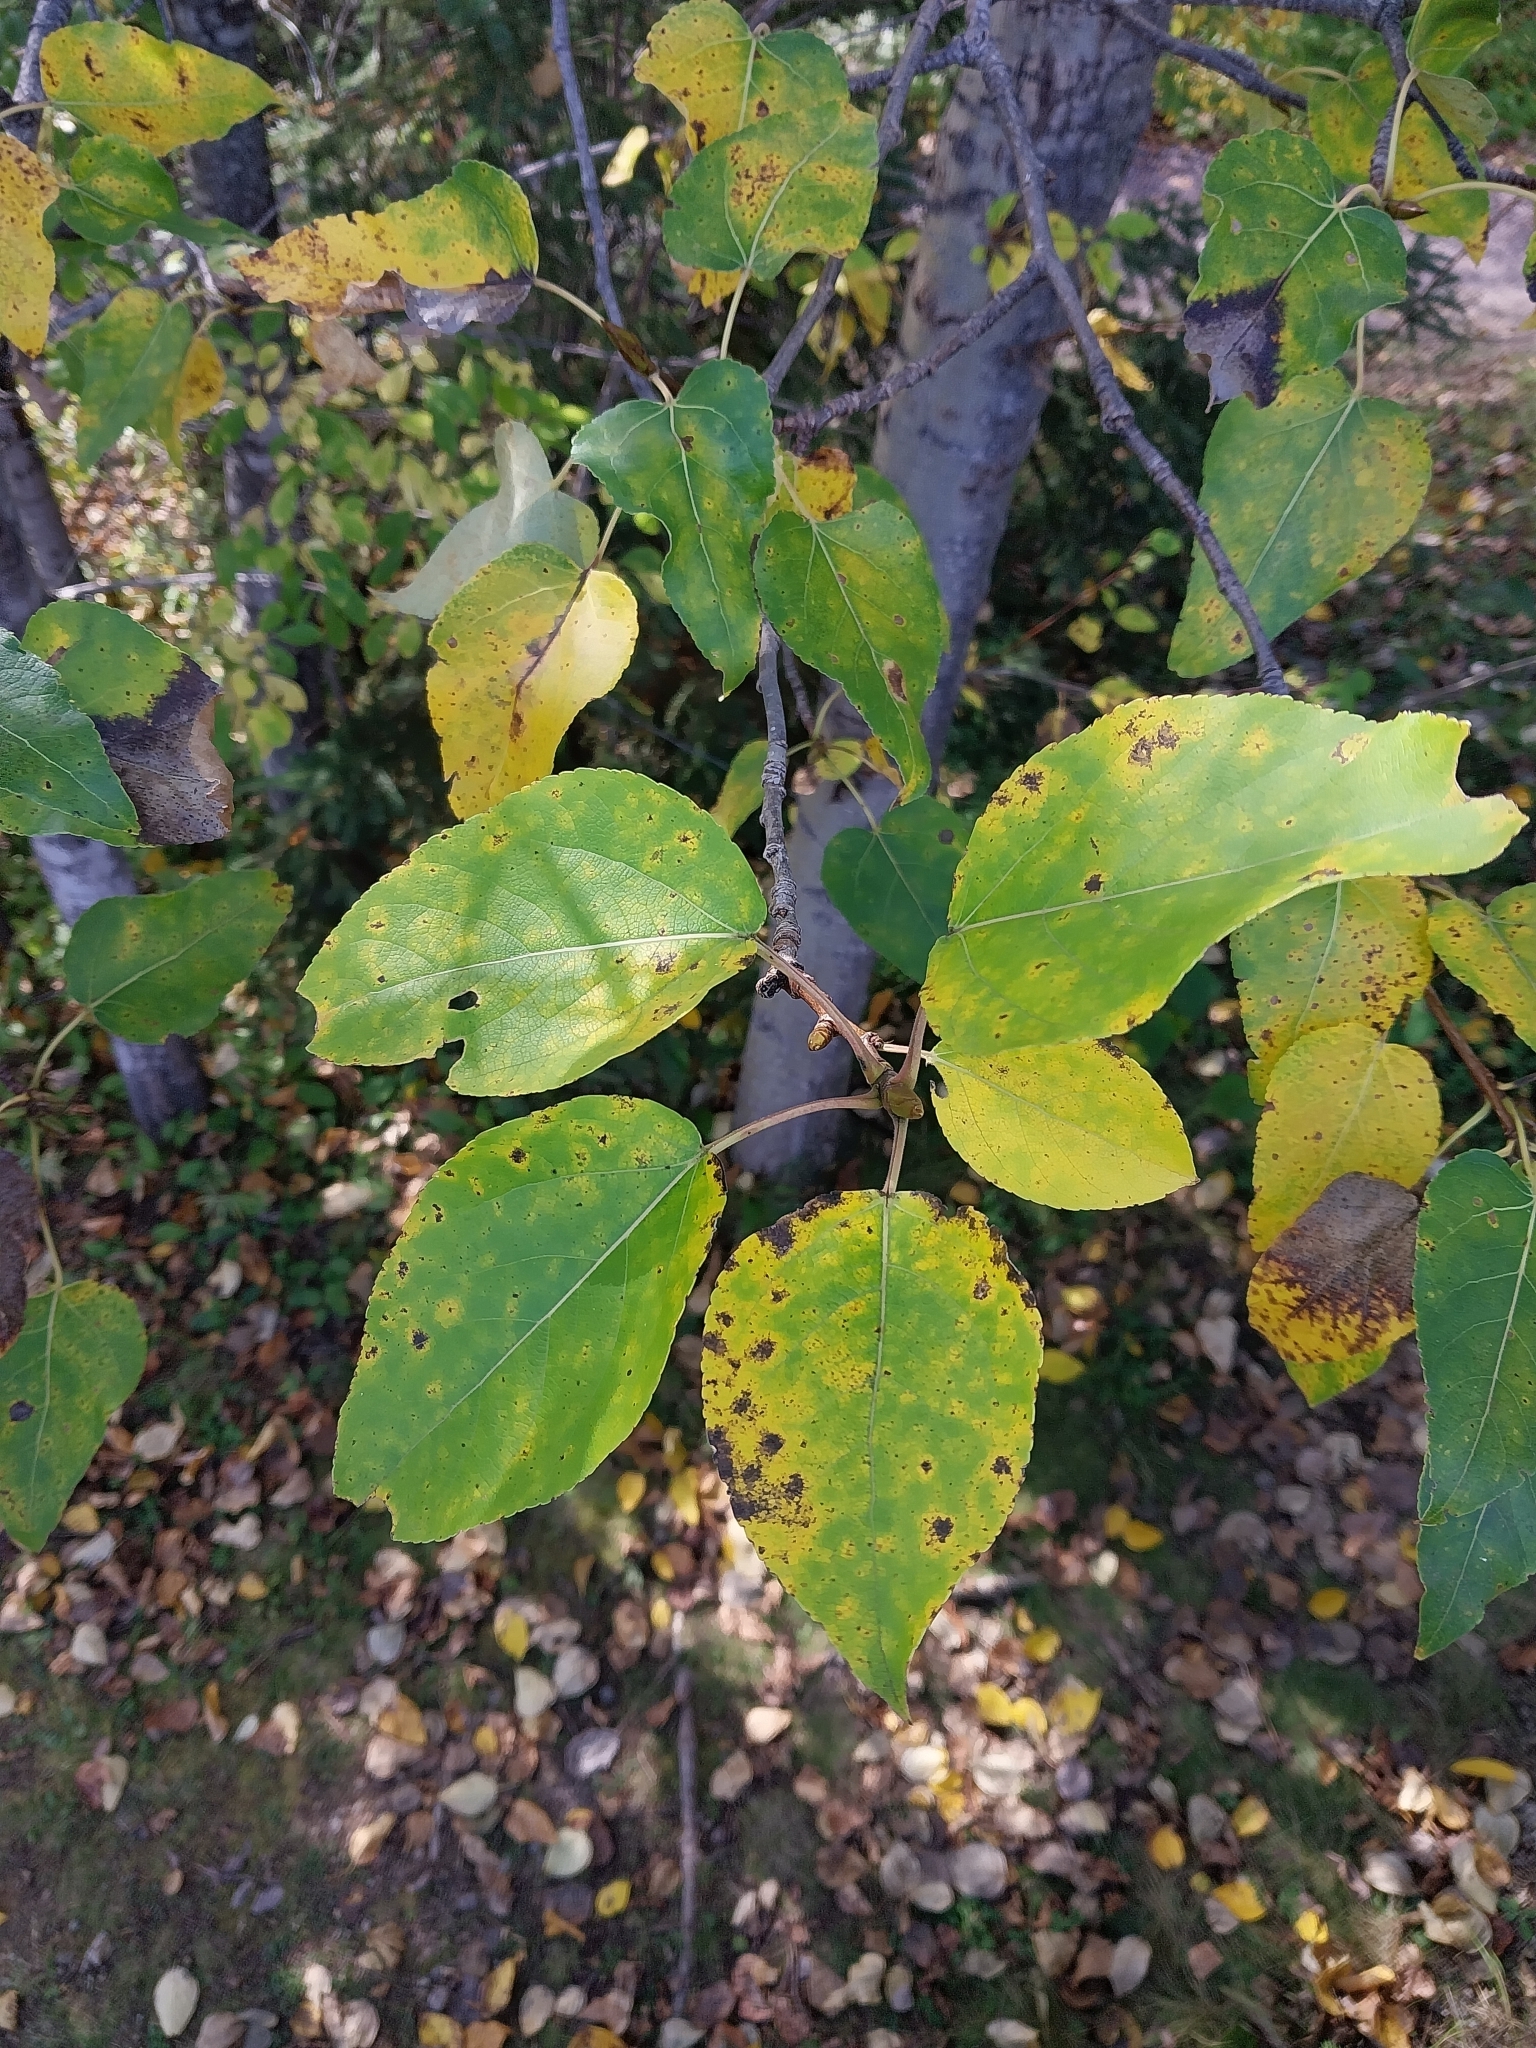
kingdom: Plantae
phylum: Tracheophyta
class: Magnoliopsida
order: Malpighiales
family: Salicaceae
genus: Populus
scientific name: Populus balsamifera
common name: Balsam poplar
